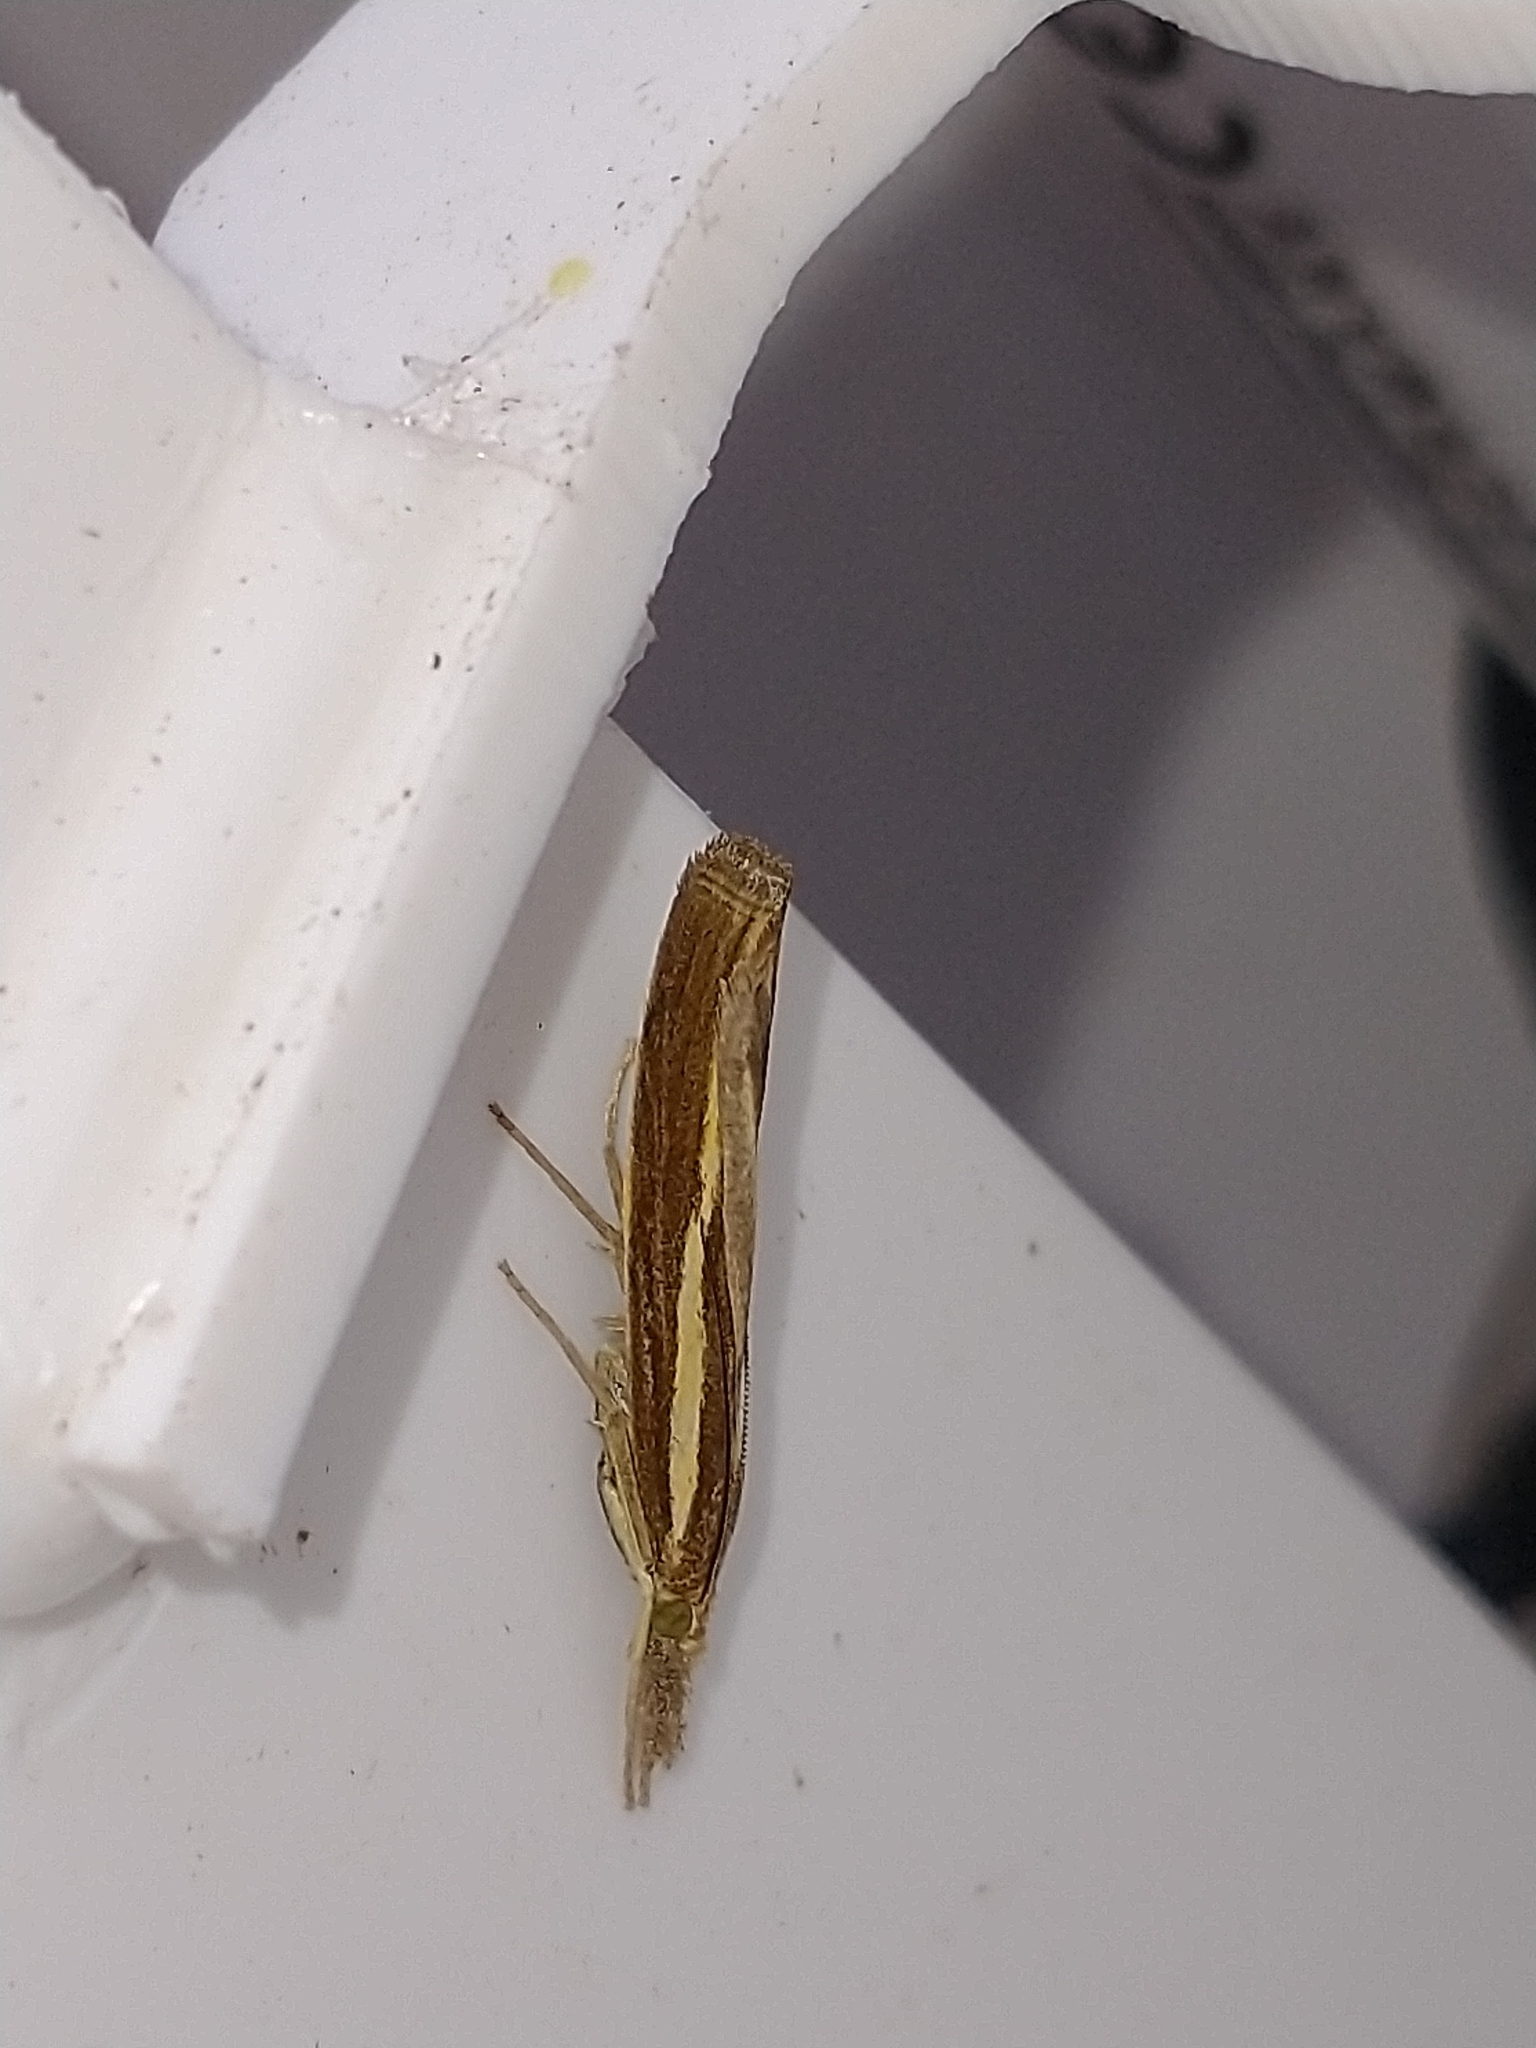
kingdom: Animalia
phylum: Arthropoda
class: Insecta
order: Lepidoptera
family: Crambidae
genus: Agriphila
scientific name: Agriphila tristellus
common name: Common grass-veneer
